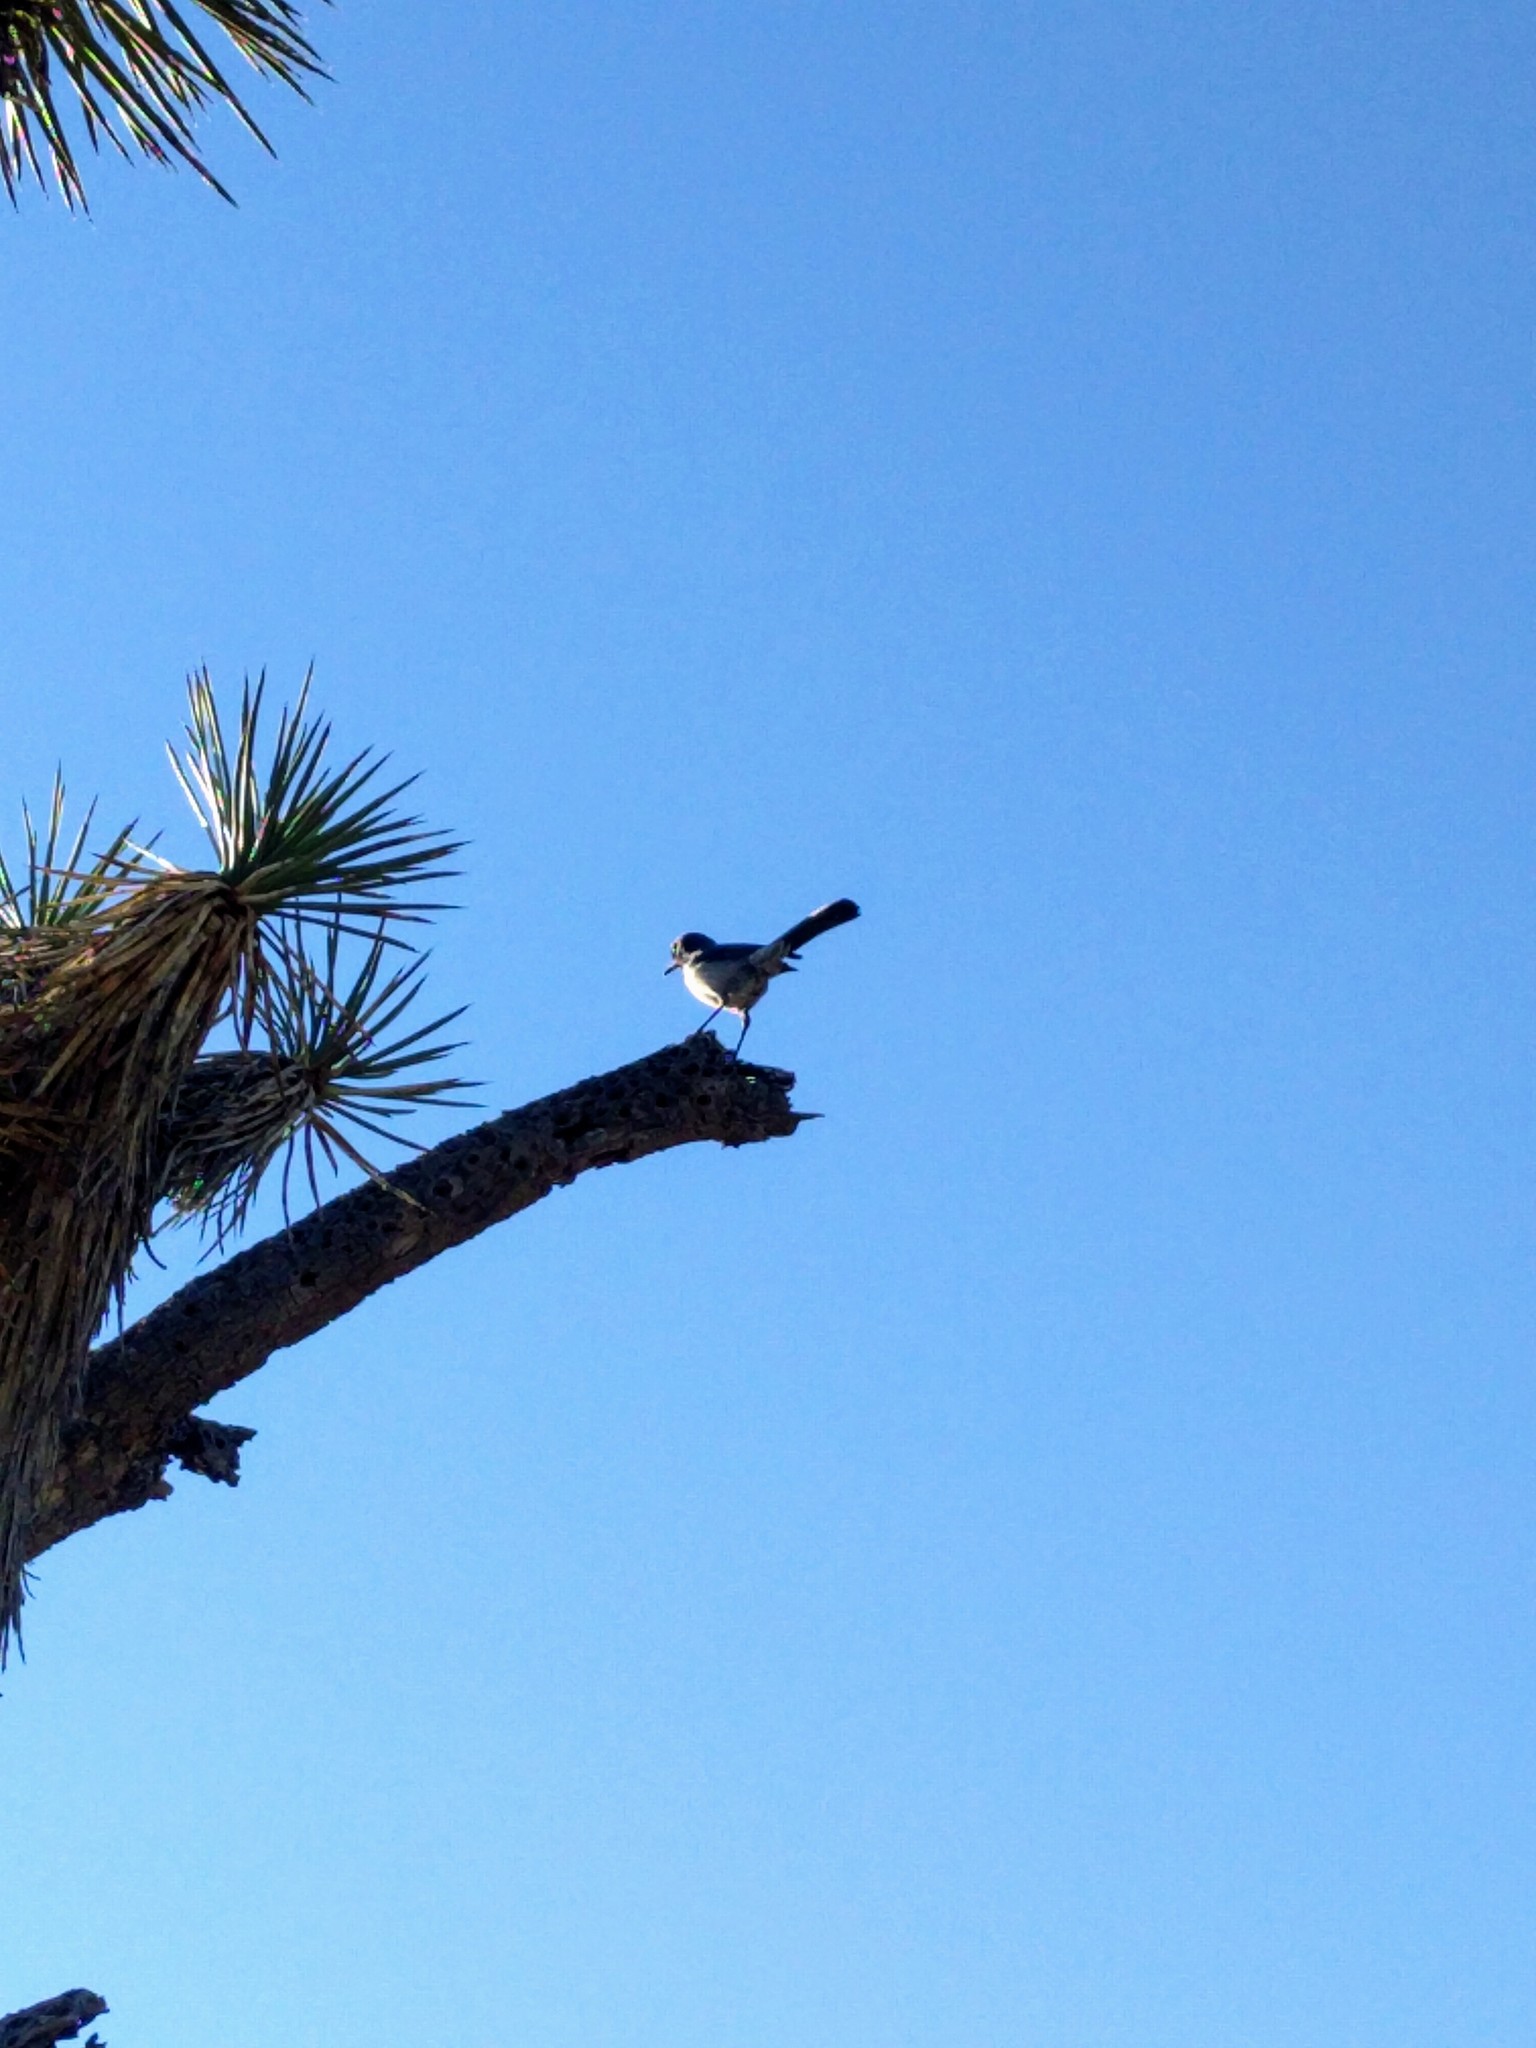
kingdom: Animalia
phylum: Chordata
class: Aves
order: Passeriformes
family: Corvidae
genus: Aphelocoma
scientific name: Aphelocoma californica
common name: California scrub-jay
